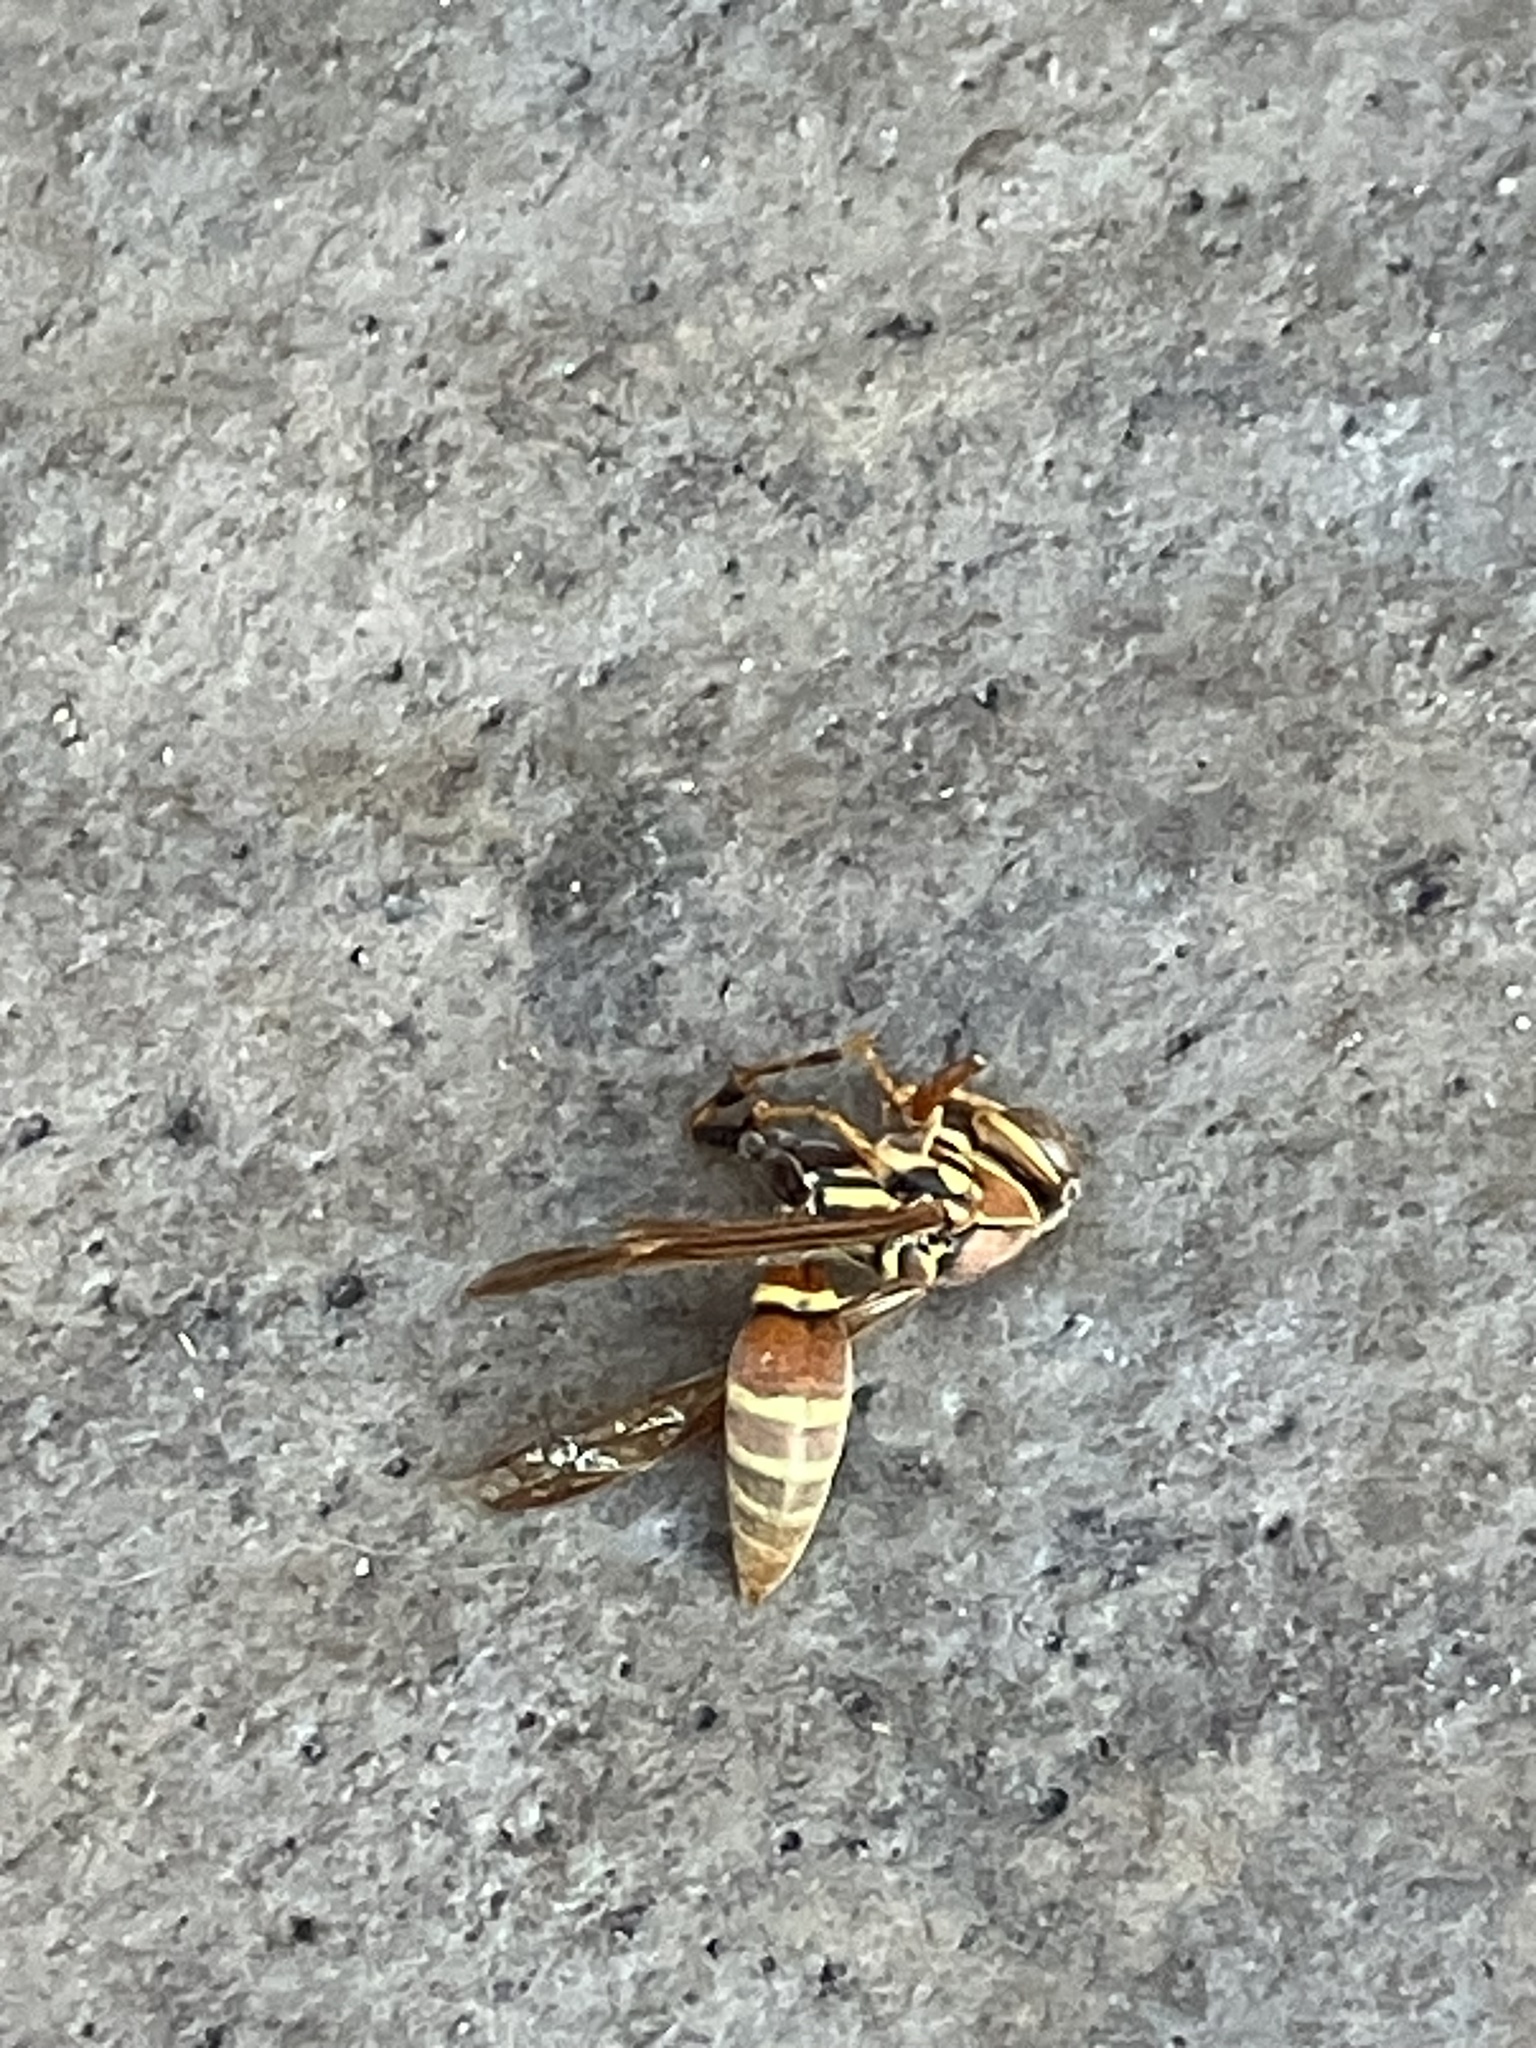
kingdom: Animalia
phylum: Arthropoda
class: Insecta
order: Hymenoptera
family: Eumenidae
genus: Polistes
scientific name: Polistes exclamans
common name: Paper wasp
